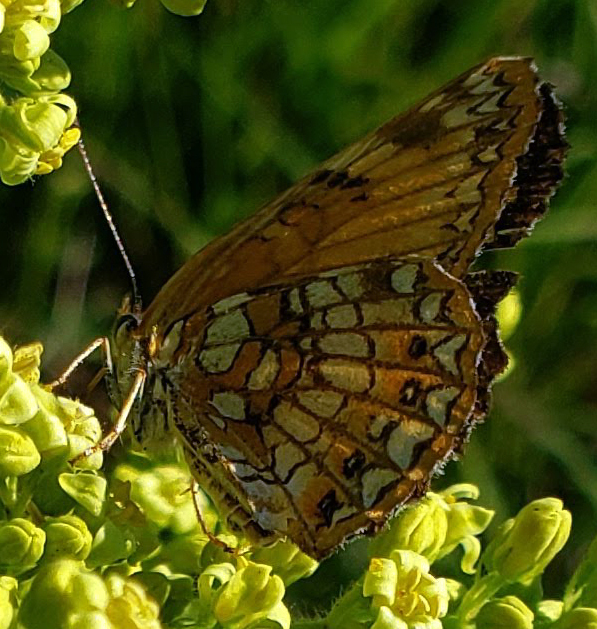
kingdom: Animalia
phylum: Arthropoda
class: Insecta
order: Lepidoptera
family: Nymphalidae
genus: Chlosyne
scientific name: Chlosyne harrisii
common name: Harris's checkerspot
